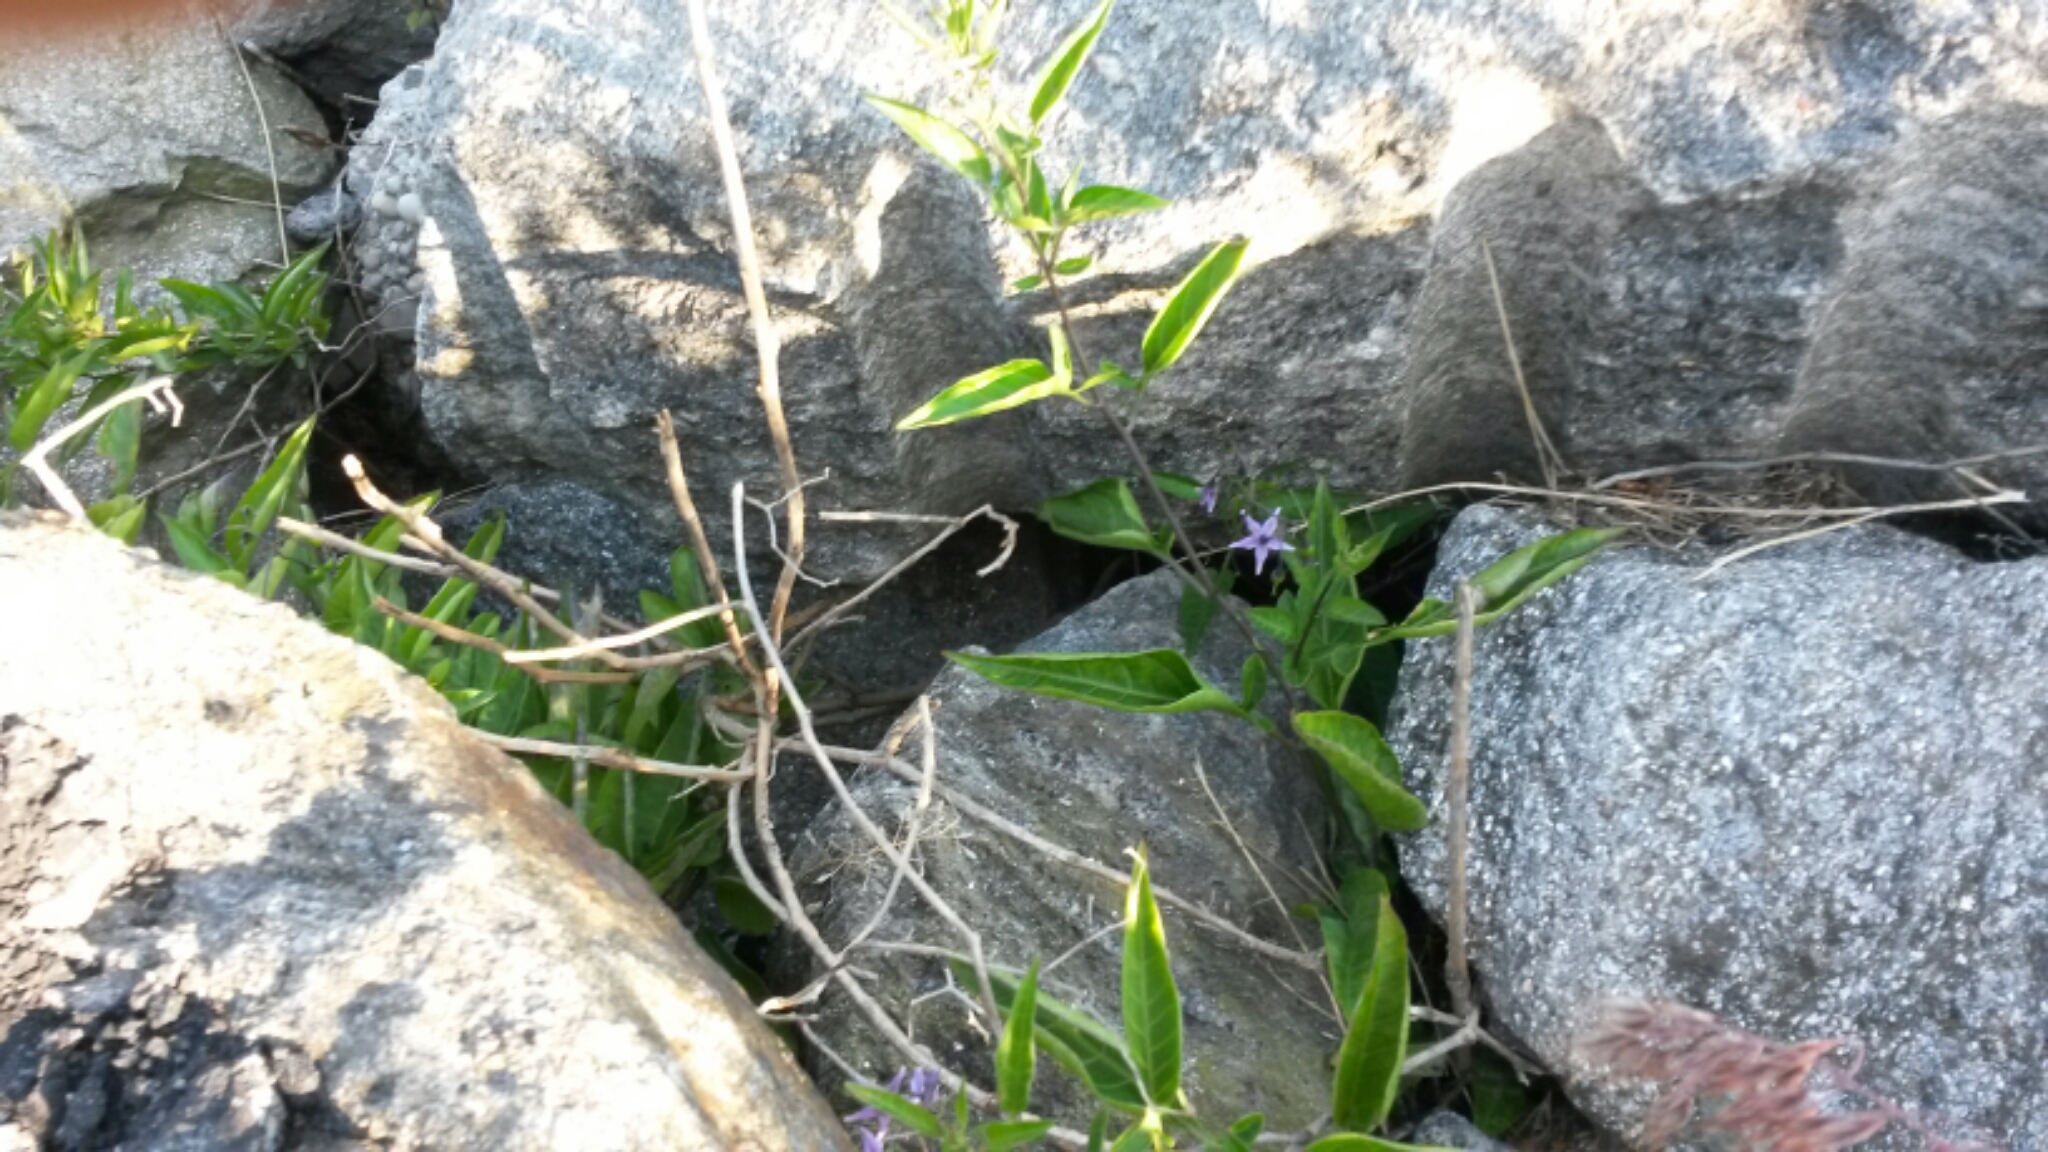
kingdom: Plantae
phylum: Tracheophyta
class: Magnoliopsida
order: Solanales
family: Solanaceae
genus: Solanum
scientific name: Solanum dulcamara
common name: Climbing nightshade
